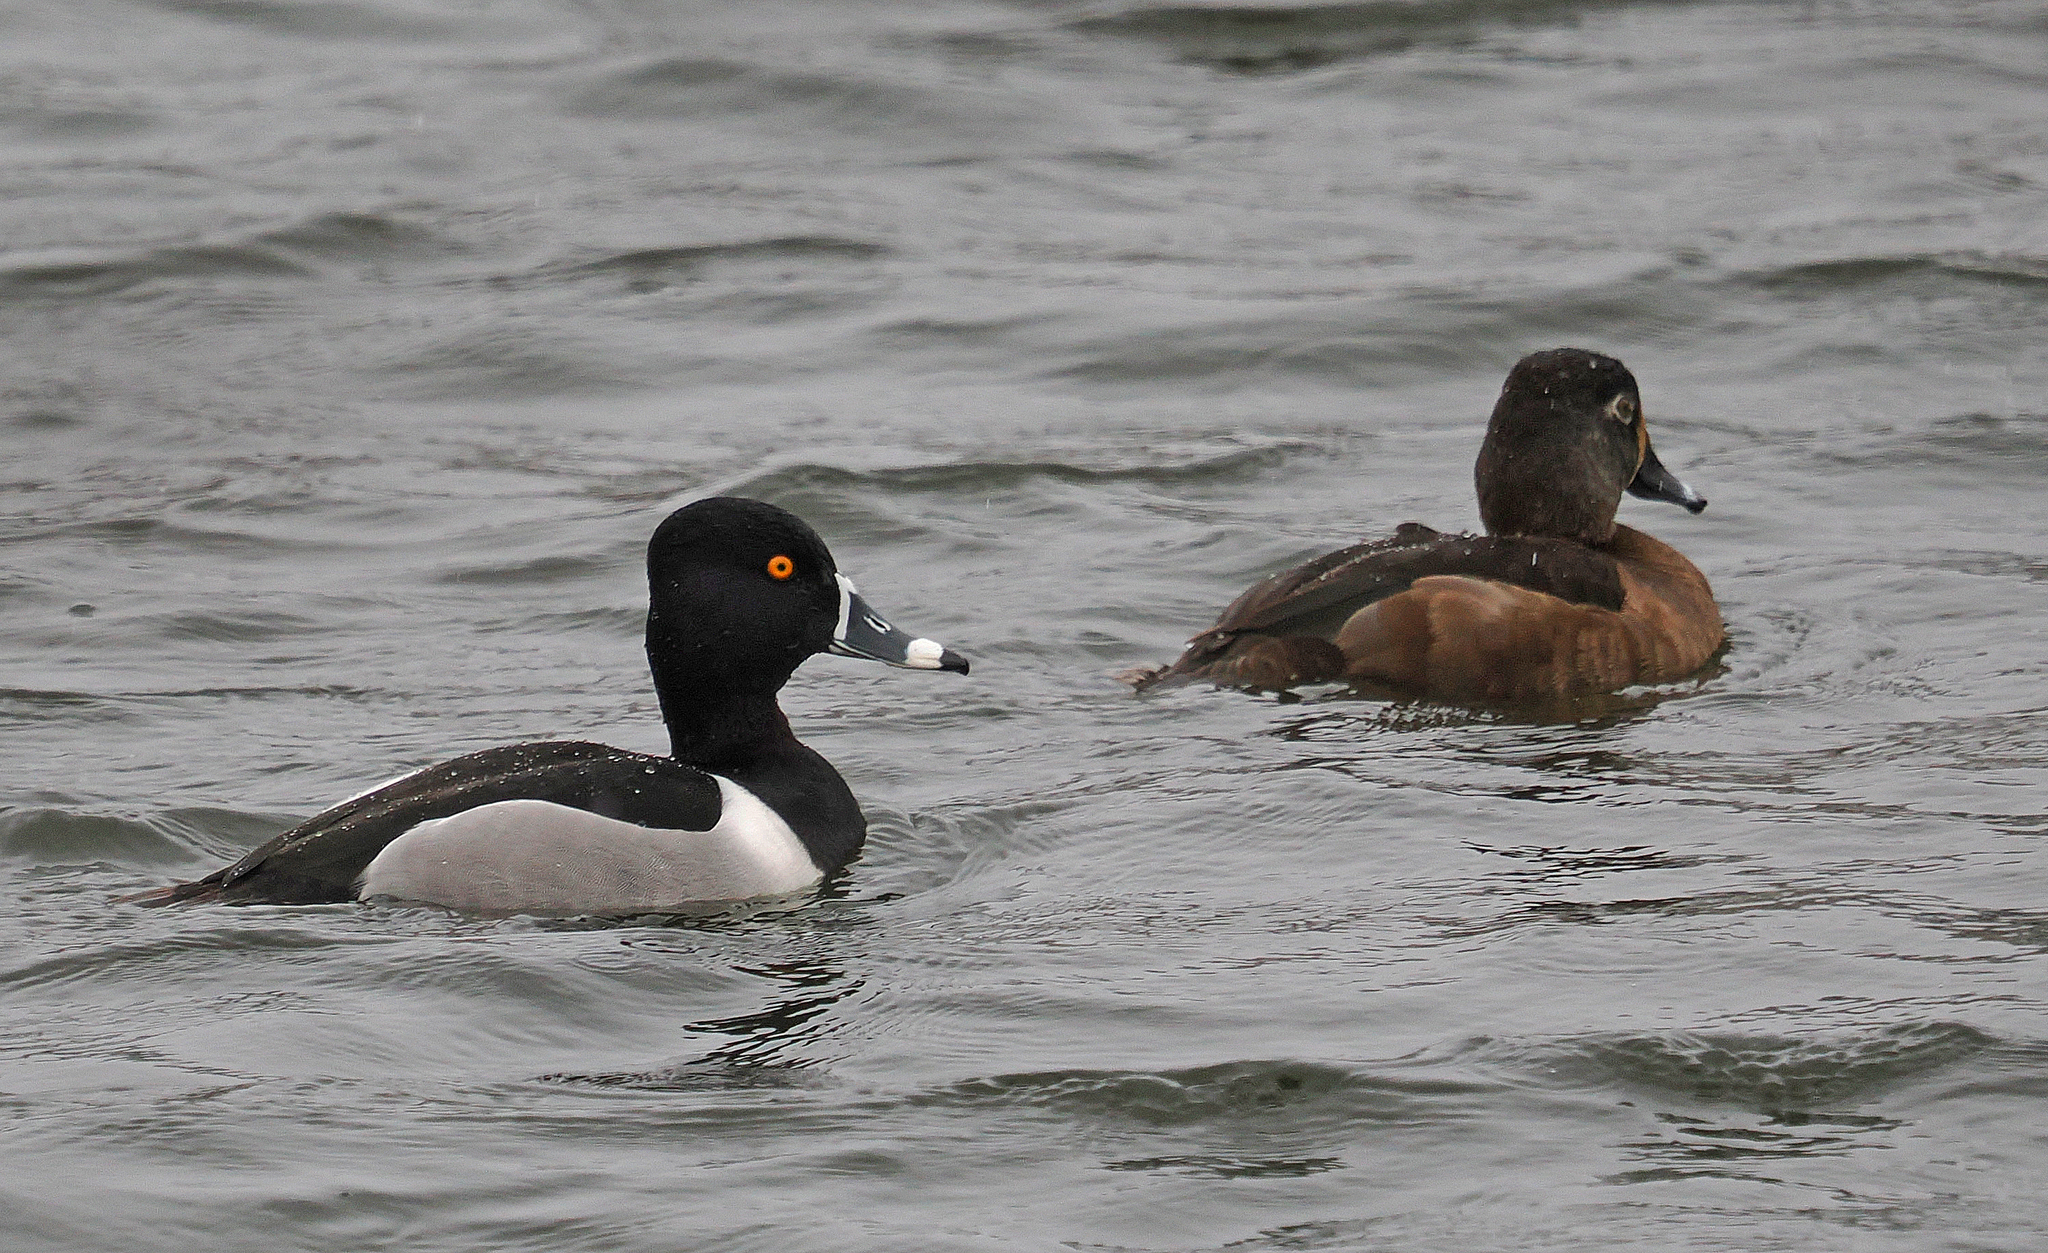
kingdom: Animalia
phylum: Chordata
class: Aves
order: Anseriformes
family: Anatidae
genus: Aythya
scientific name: Aythya collaris
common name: Ring-necked duck
